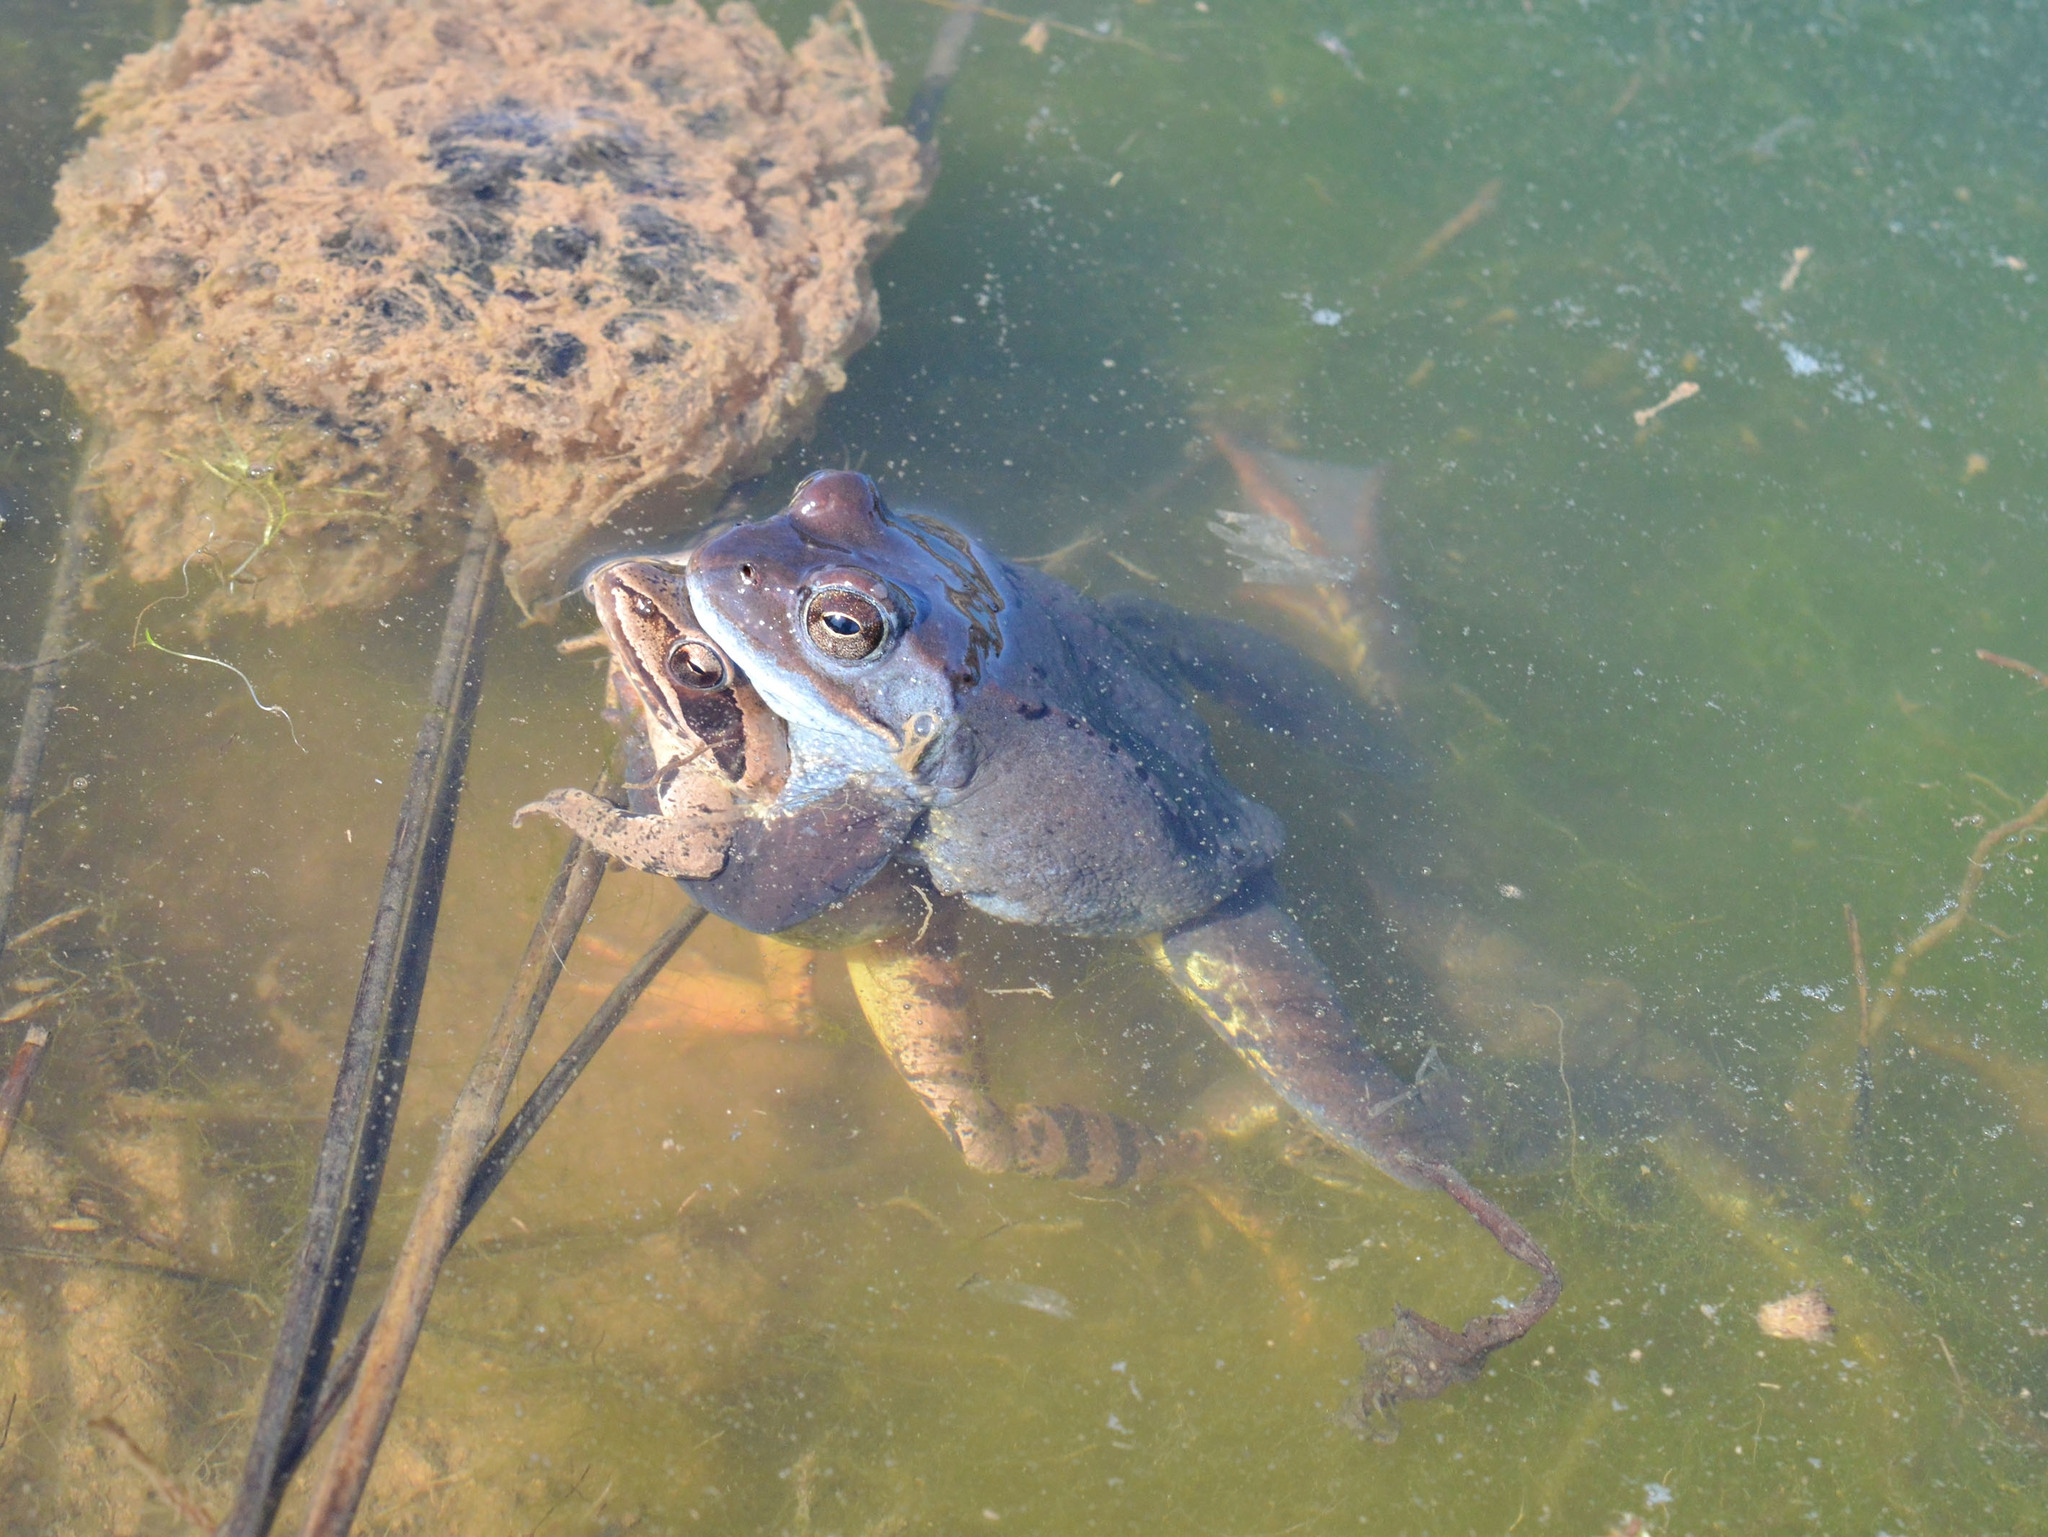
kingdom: Animalia
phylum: Chordata
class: Amphibia
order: Anura
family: Ranidae
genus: Rana
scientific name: Rana dalmatina
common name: Agile frog
